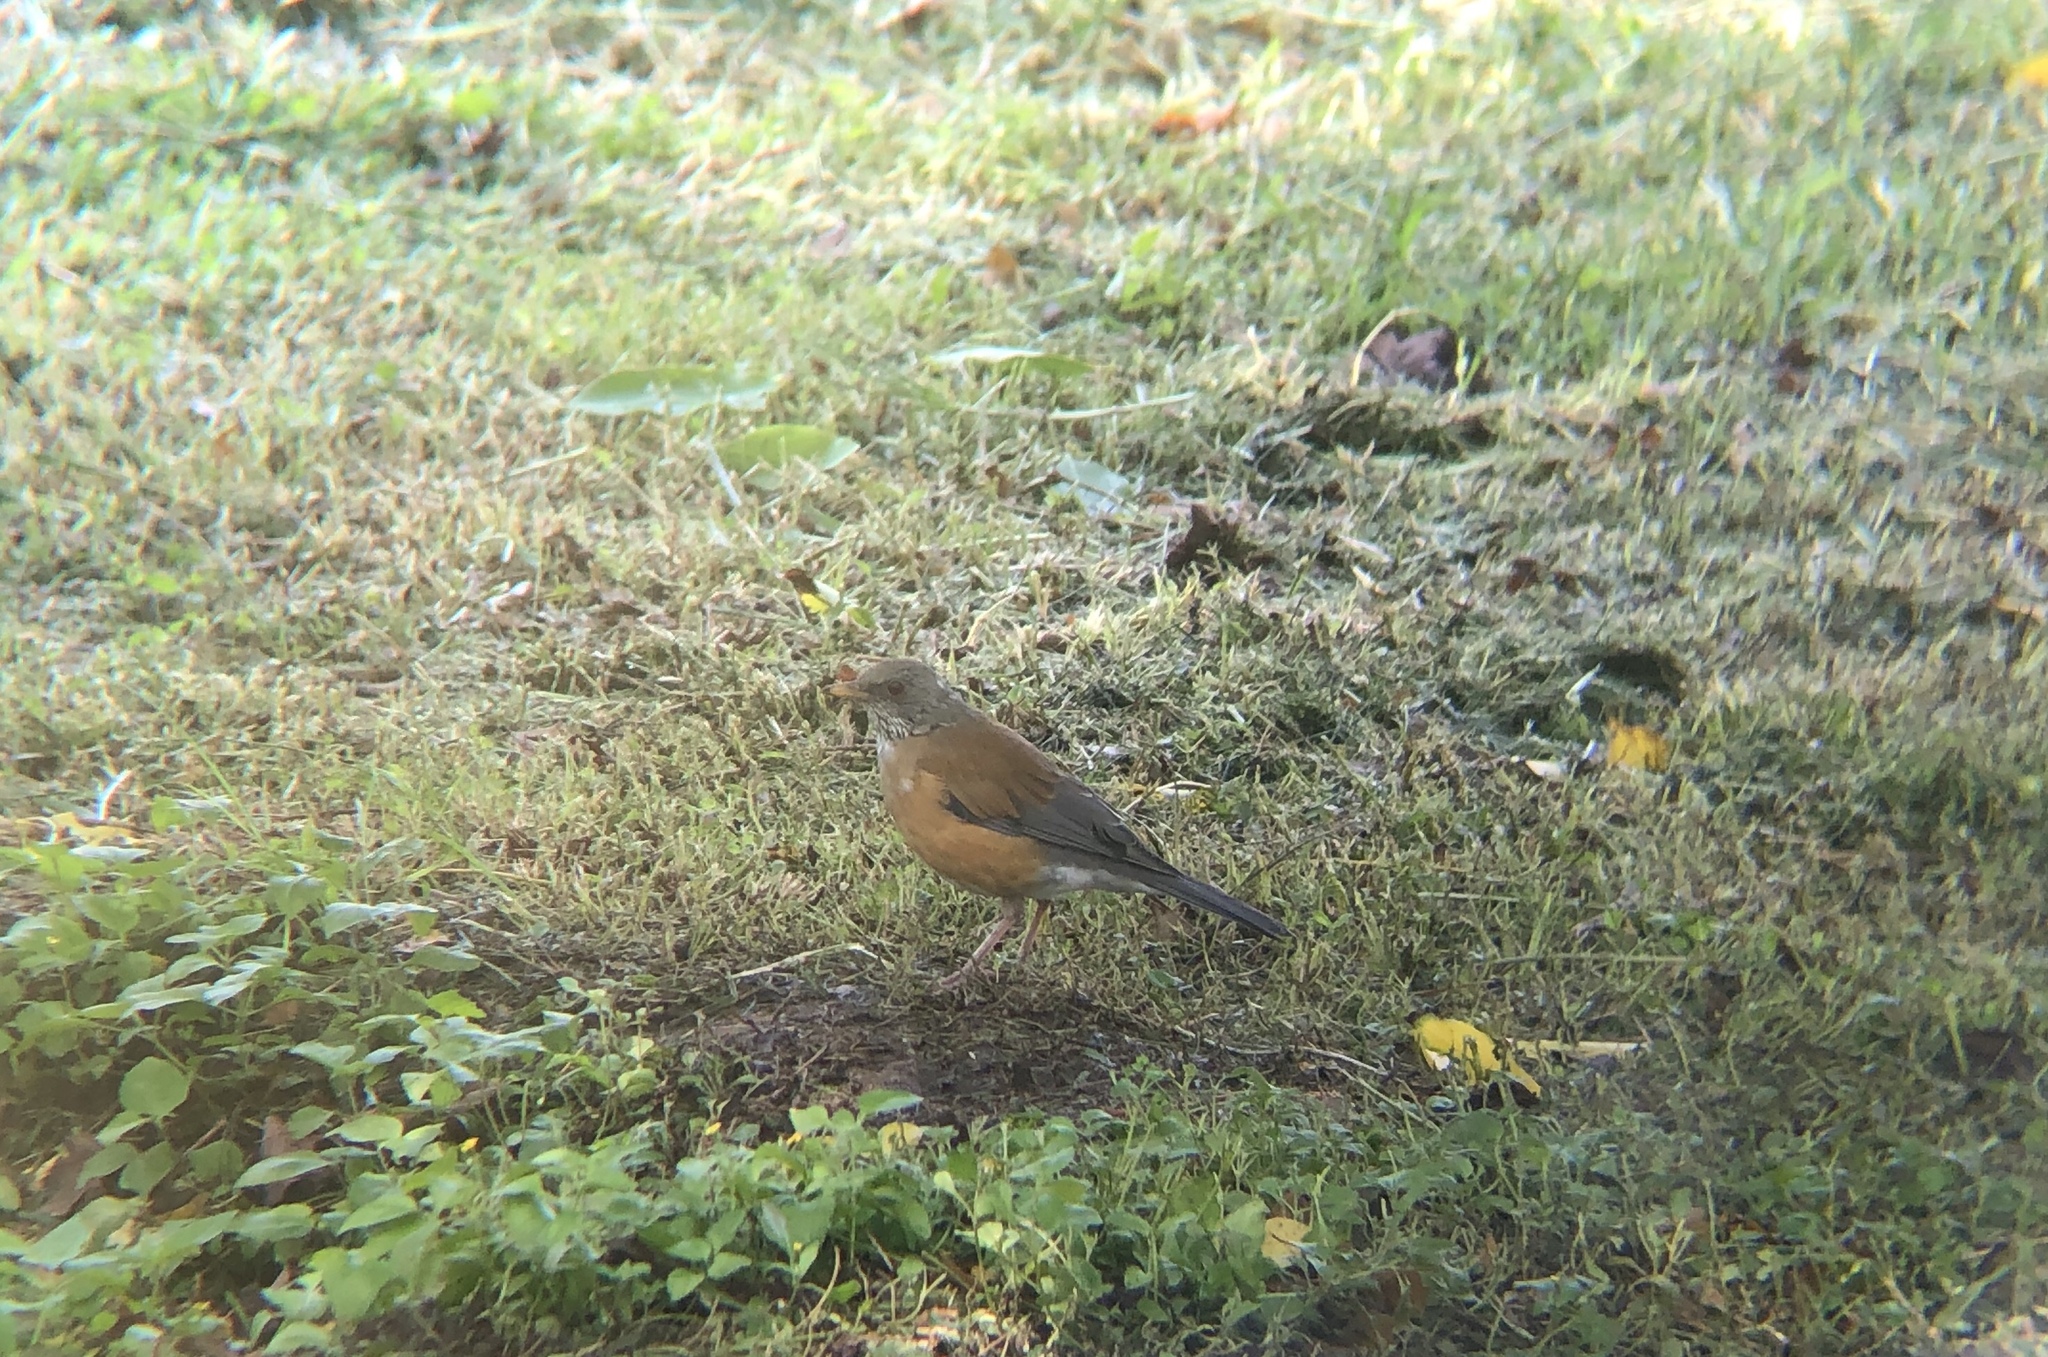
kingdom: Animalia
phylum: Chordata
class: Aves
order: Passeriformes
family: Turdidae
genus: Turdus
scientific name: Turdus rufopalliatus
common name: Rufous-backed robin
